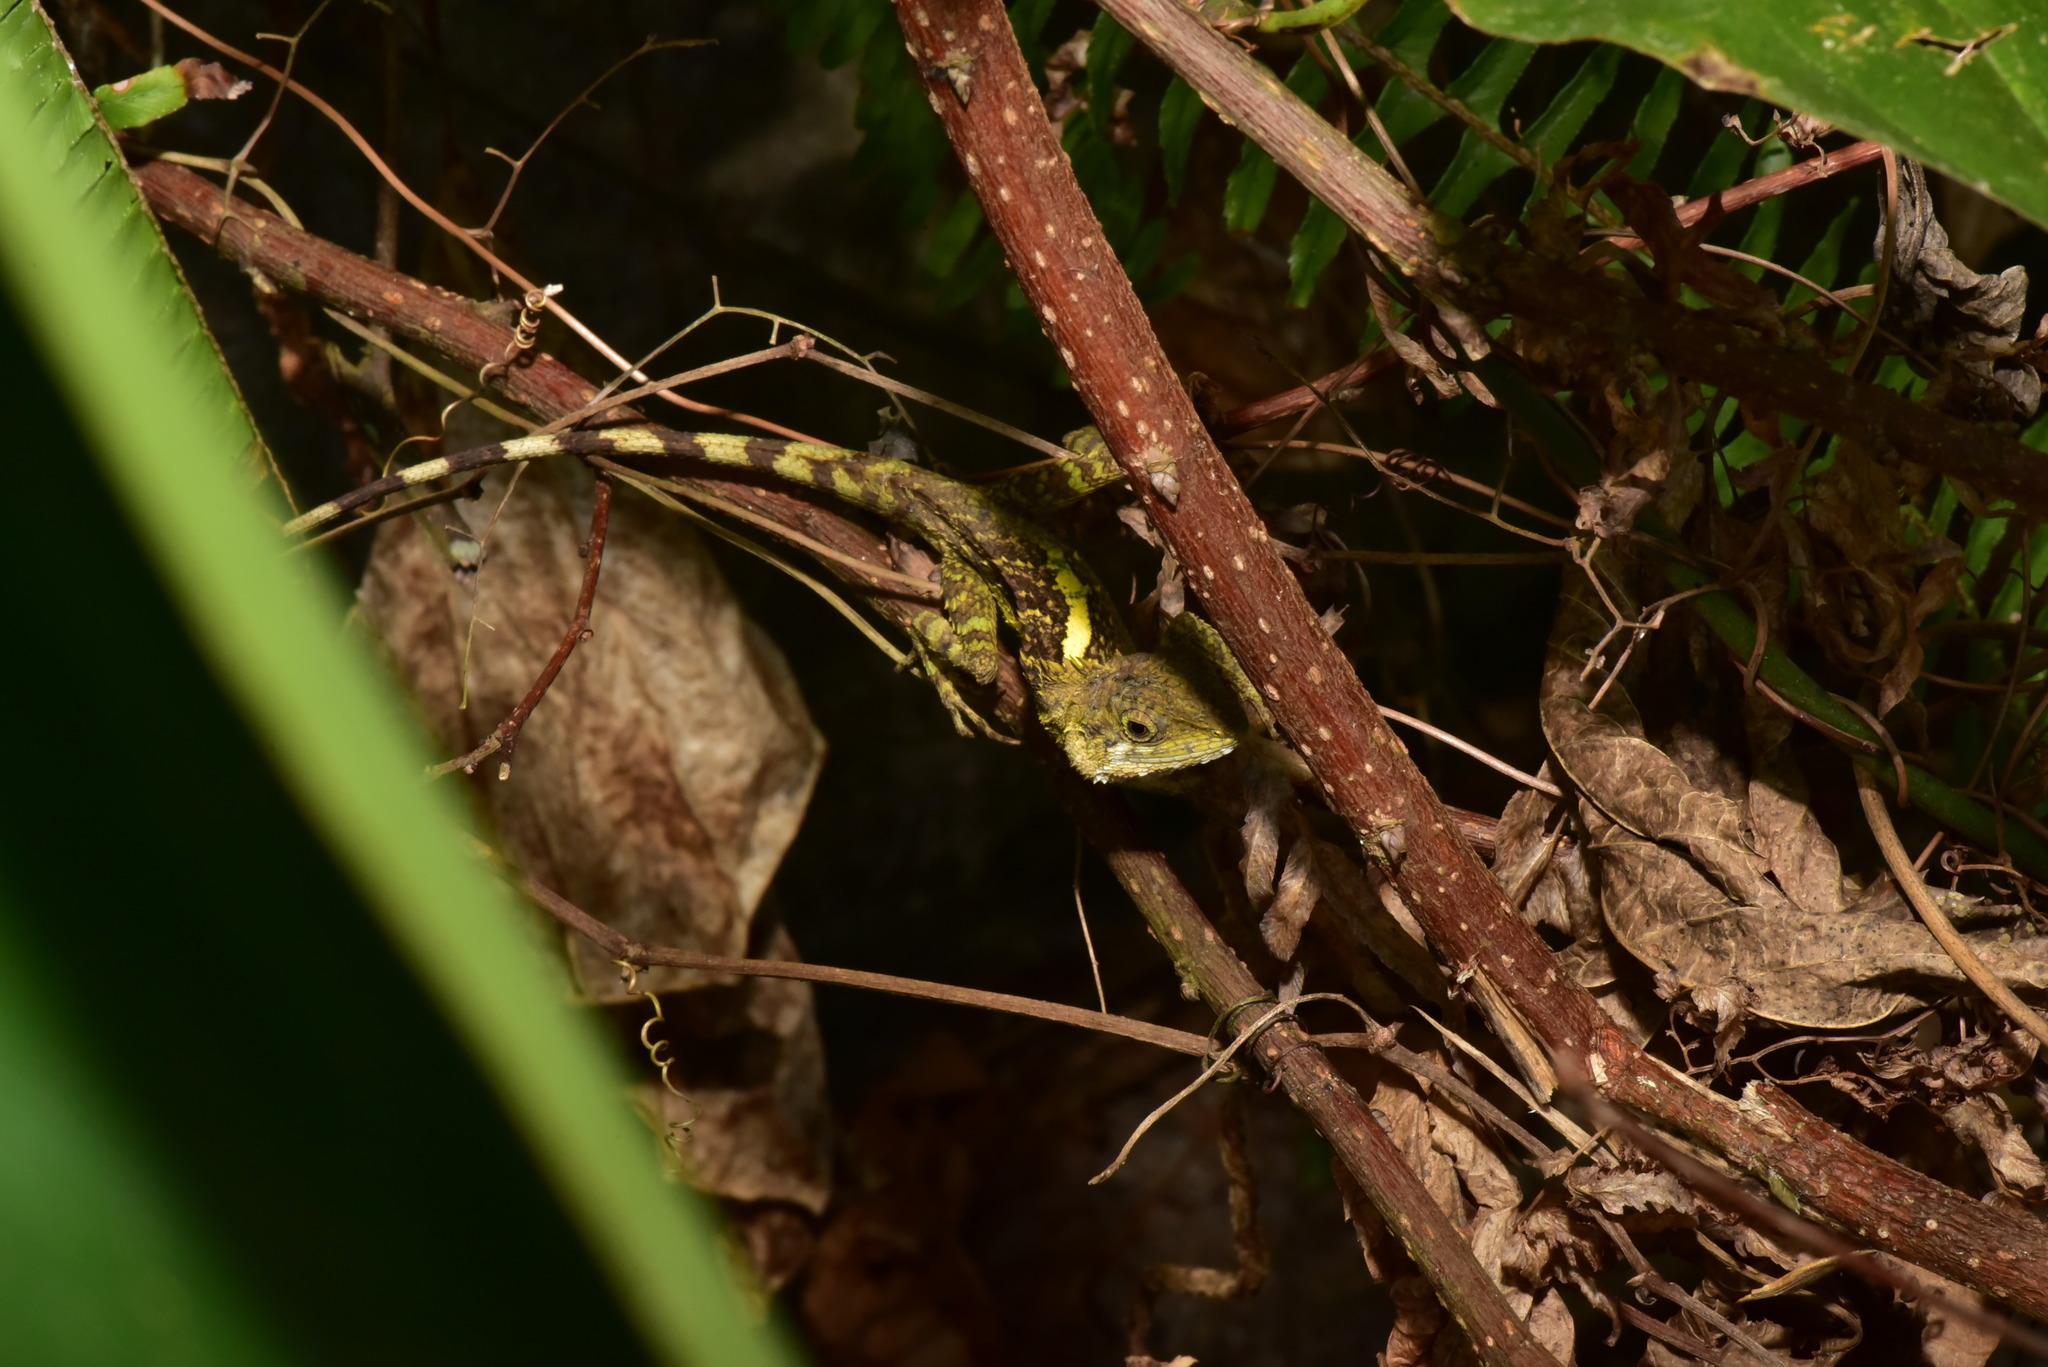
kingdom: Animalia
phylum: Chordata
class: Squamata
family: Agamidae
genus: Diploderma
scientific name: Diploderma swinhonis
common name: Taiwan japalure
